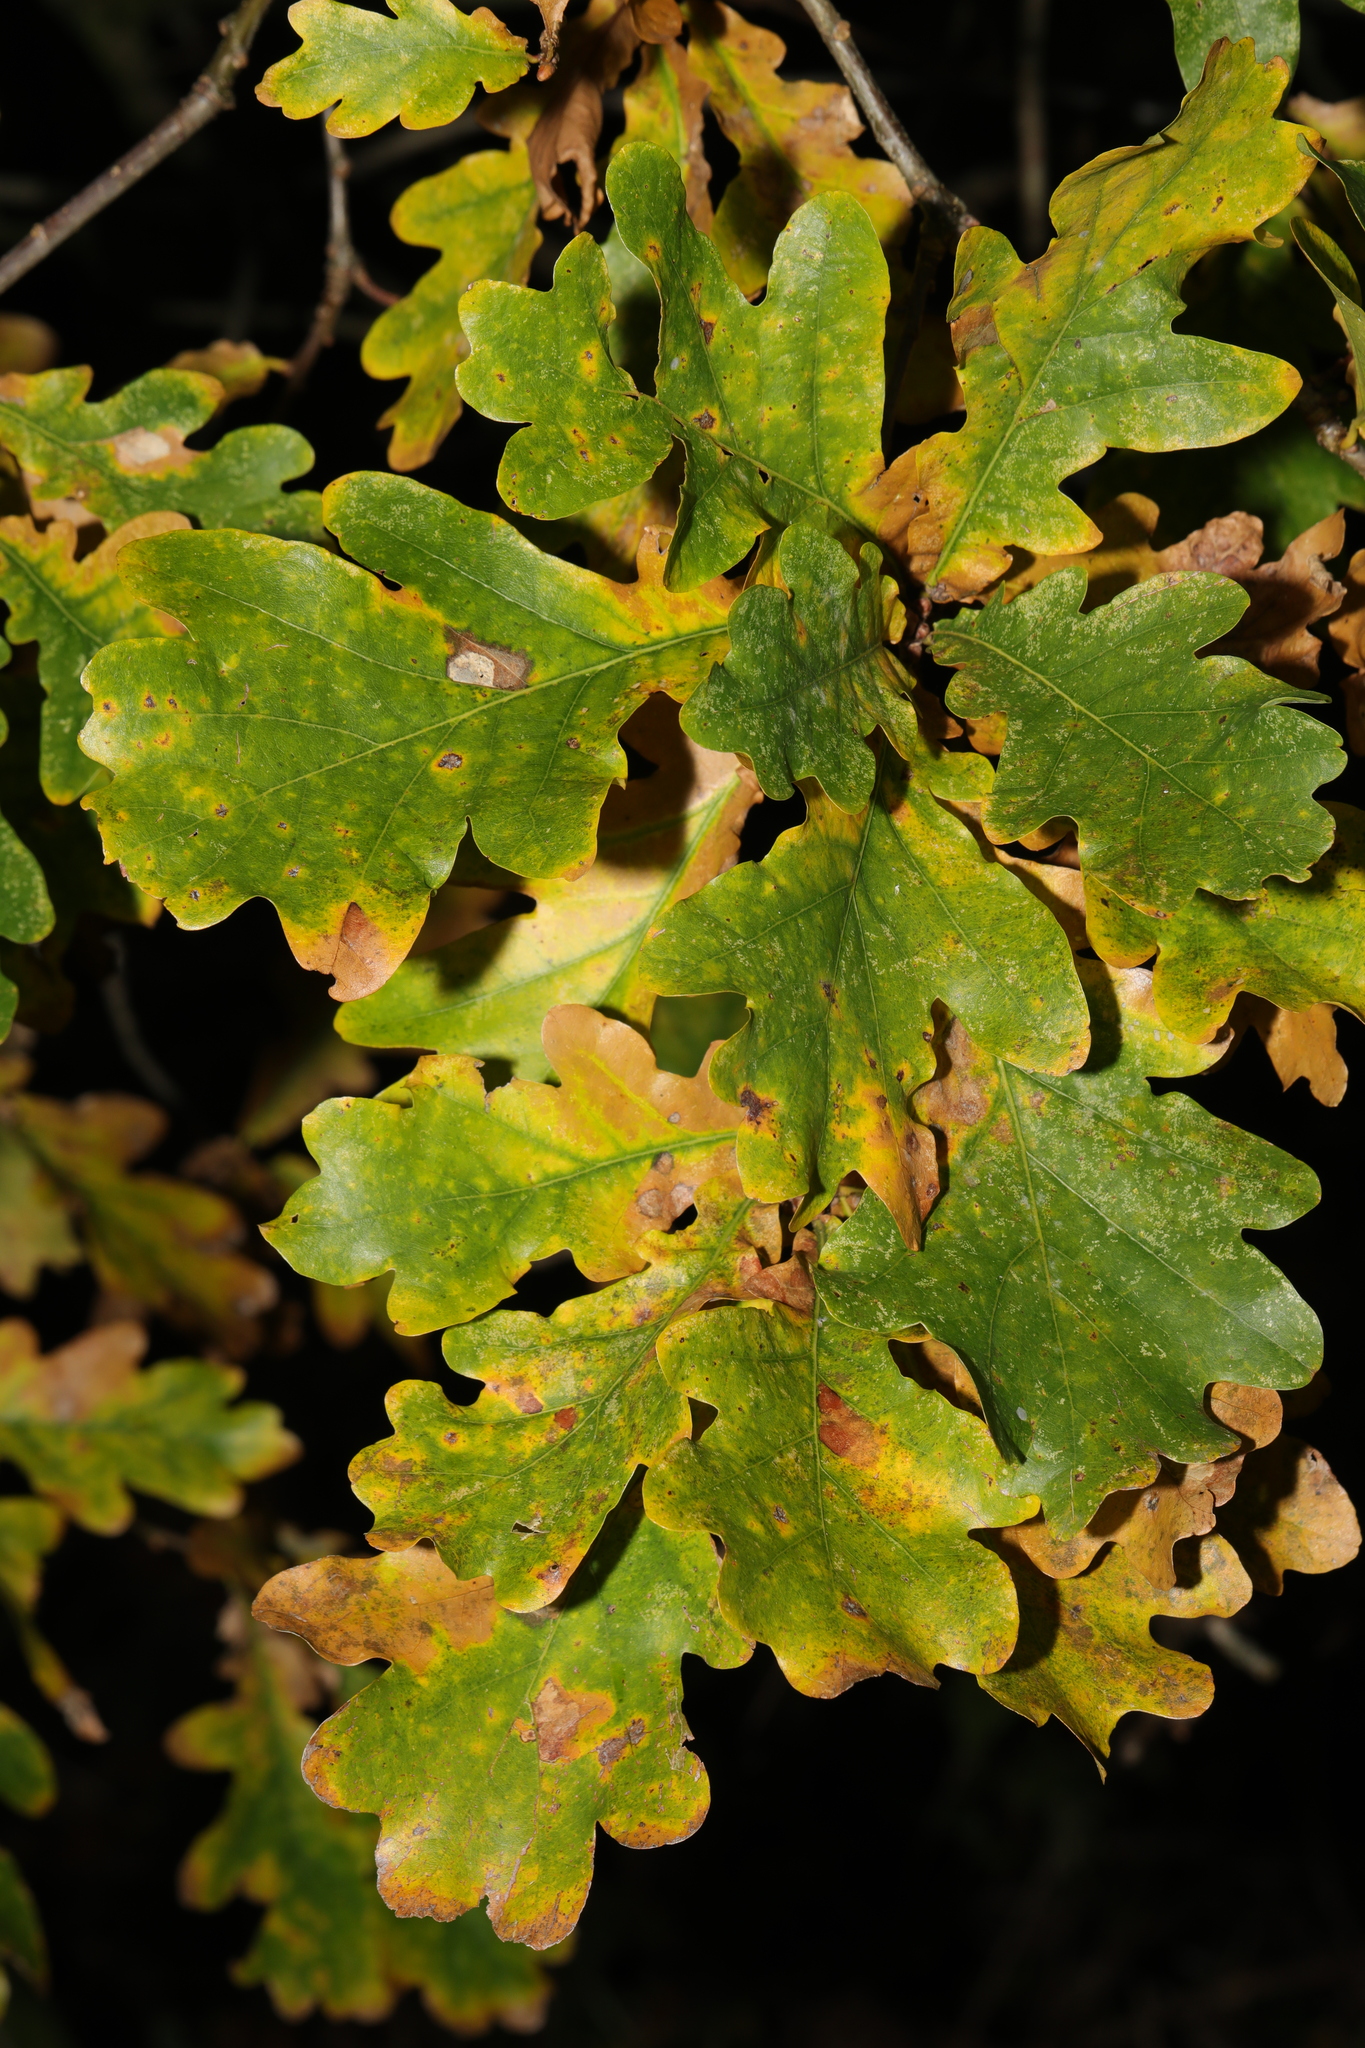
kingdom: Plantae
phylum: Tracheophyta
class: Magnoliopsida
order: Fagales
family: Fagaceae
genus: Quercus
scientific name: Quercus robur
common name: Pedunculate oak
